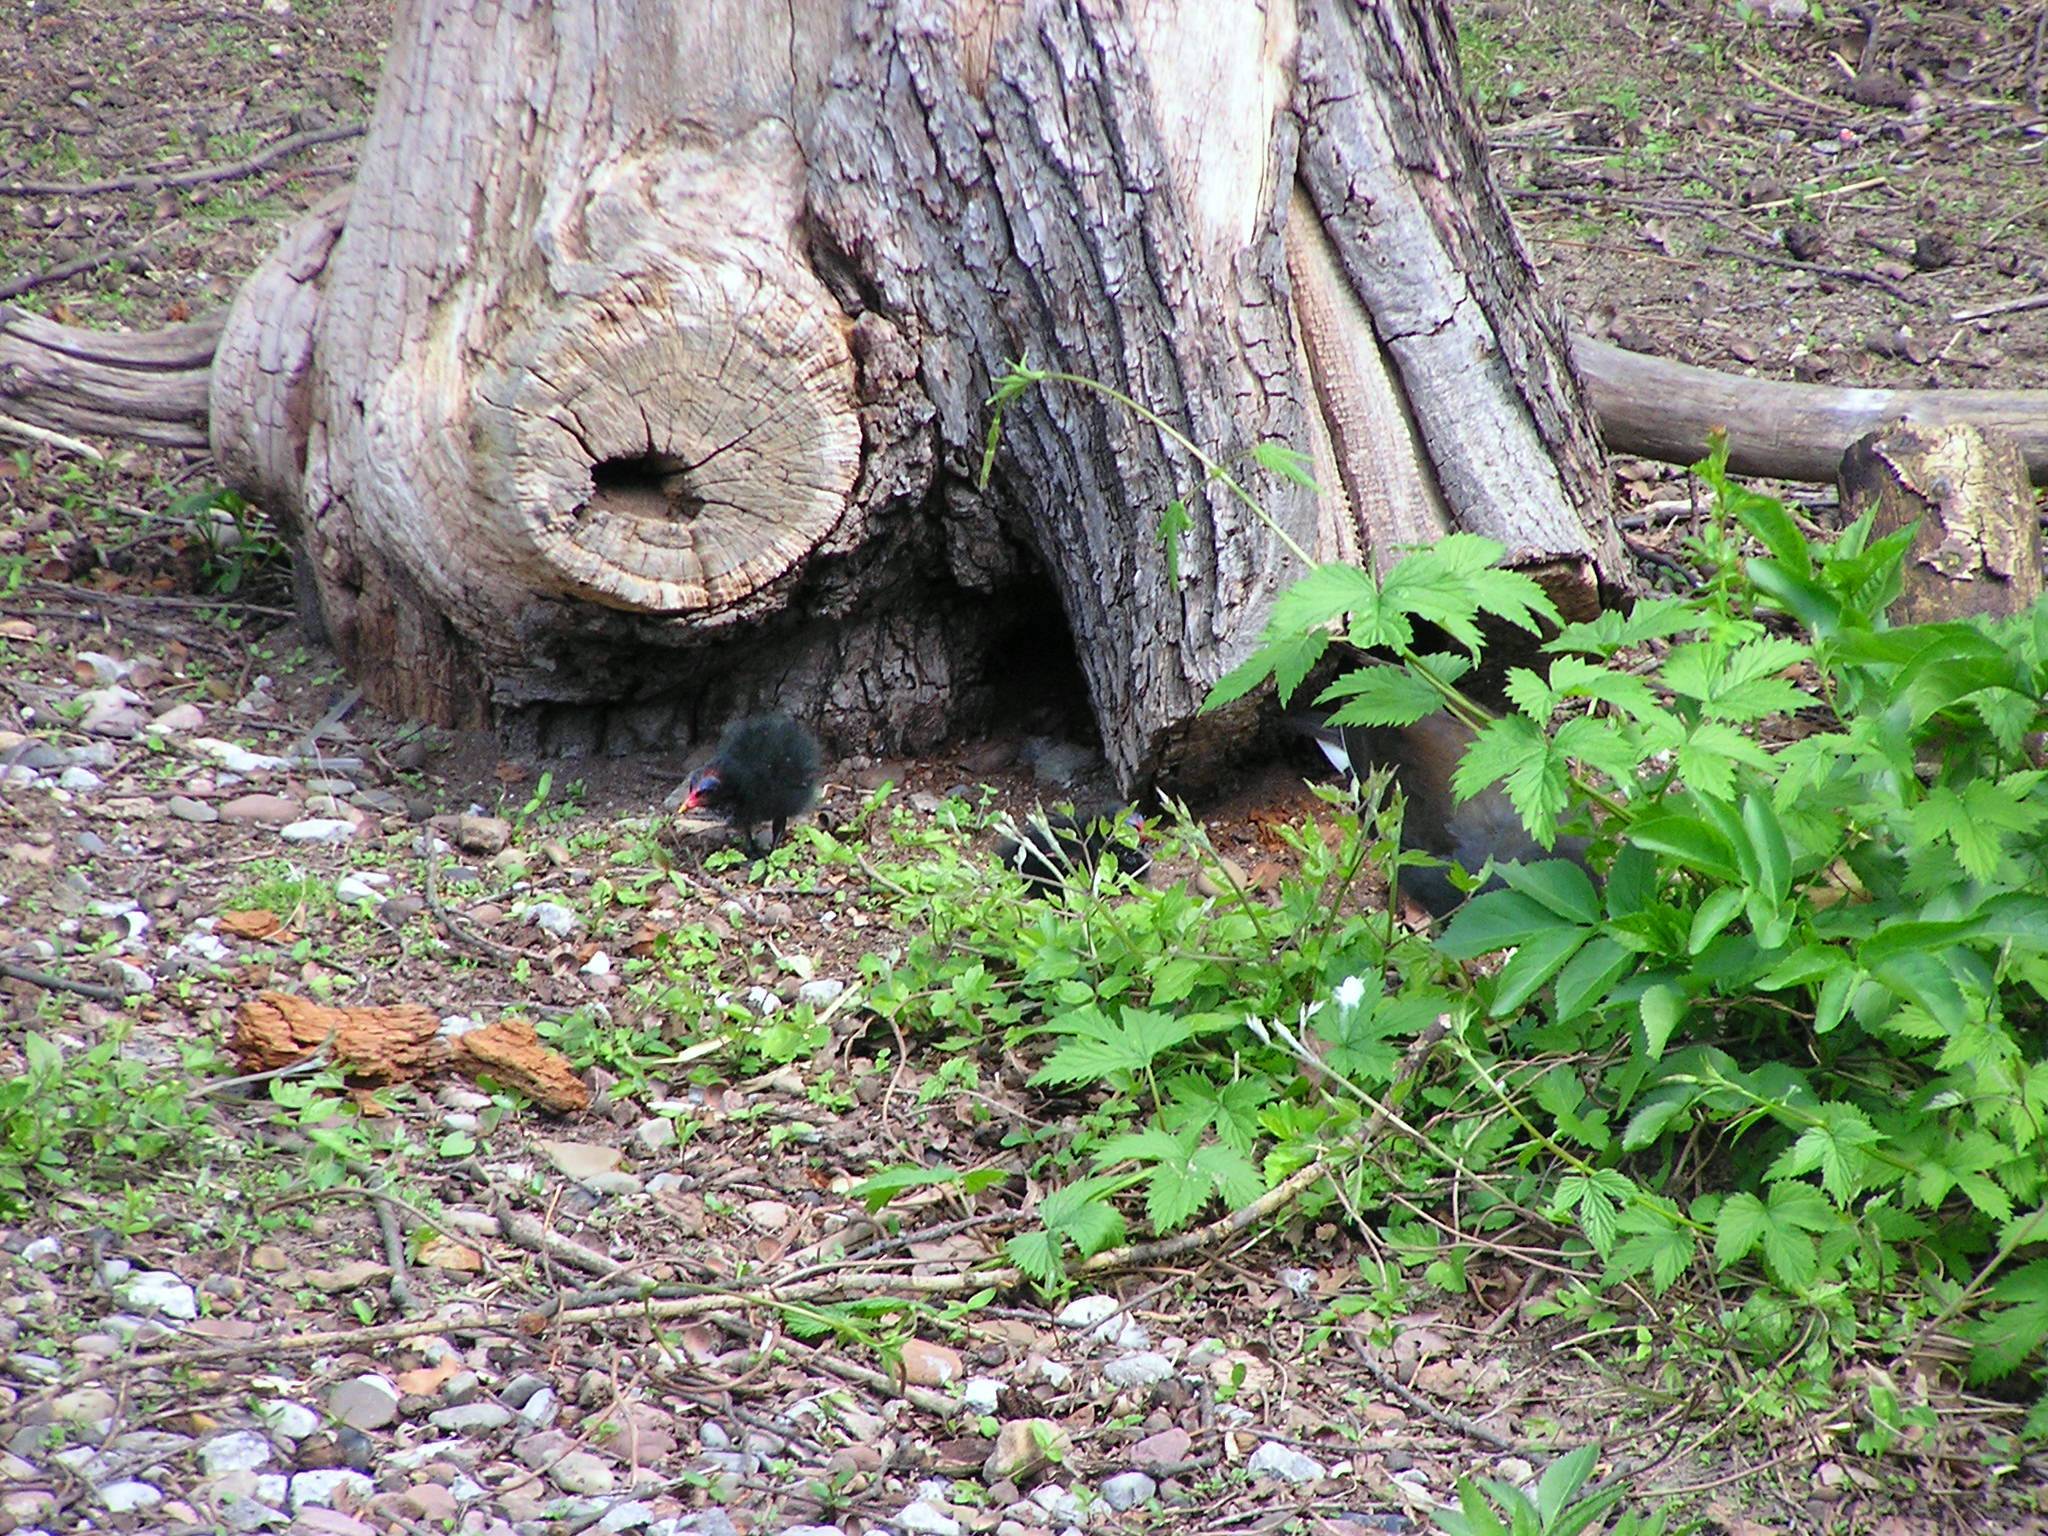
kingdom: Animalia
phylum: Chordata
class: Aves
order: Gruiformes
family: Rallidae
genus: Gallinula
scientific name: Gallinula chloropus
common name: Common moorhen
